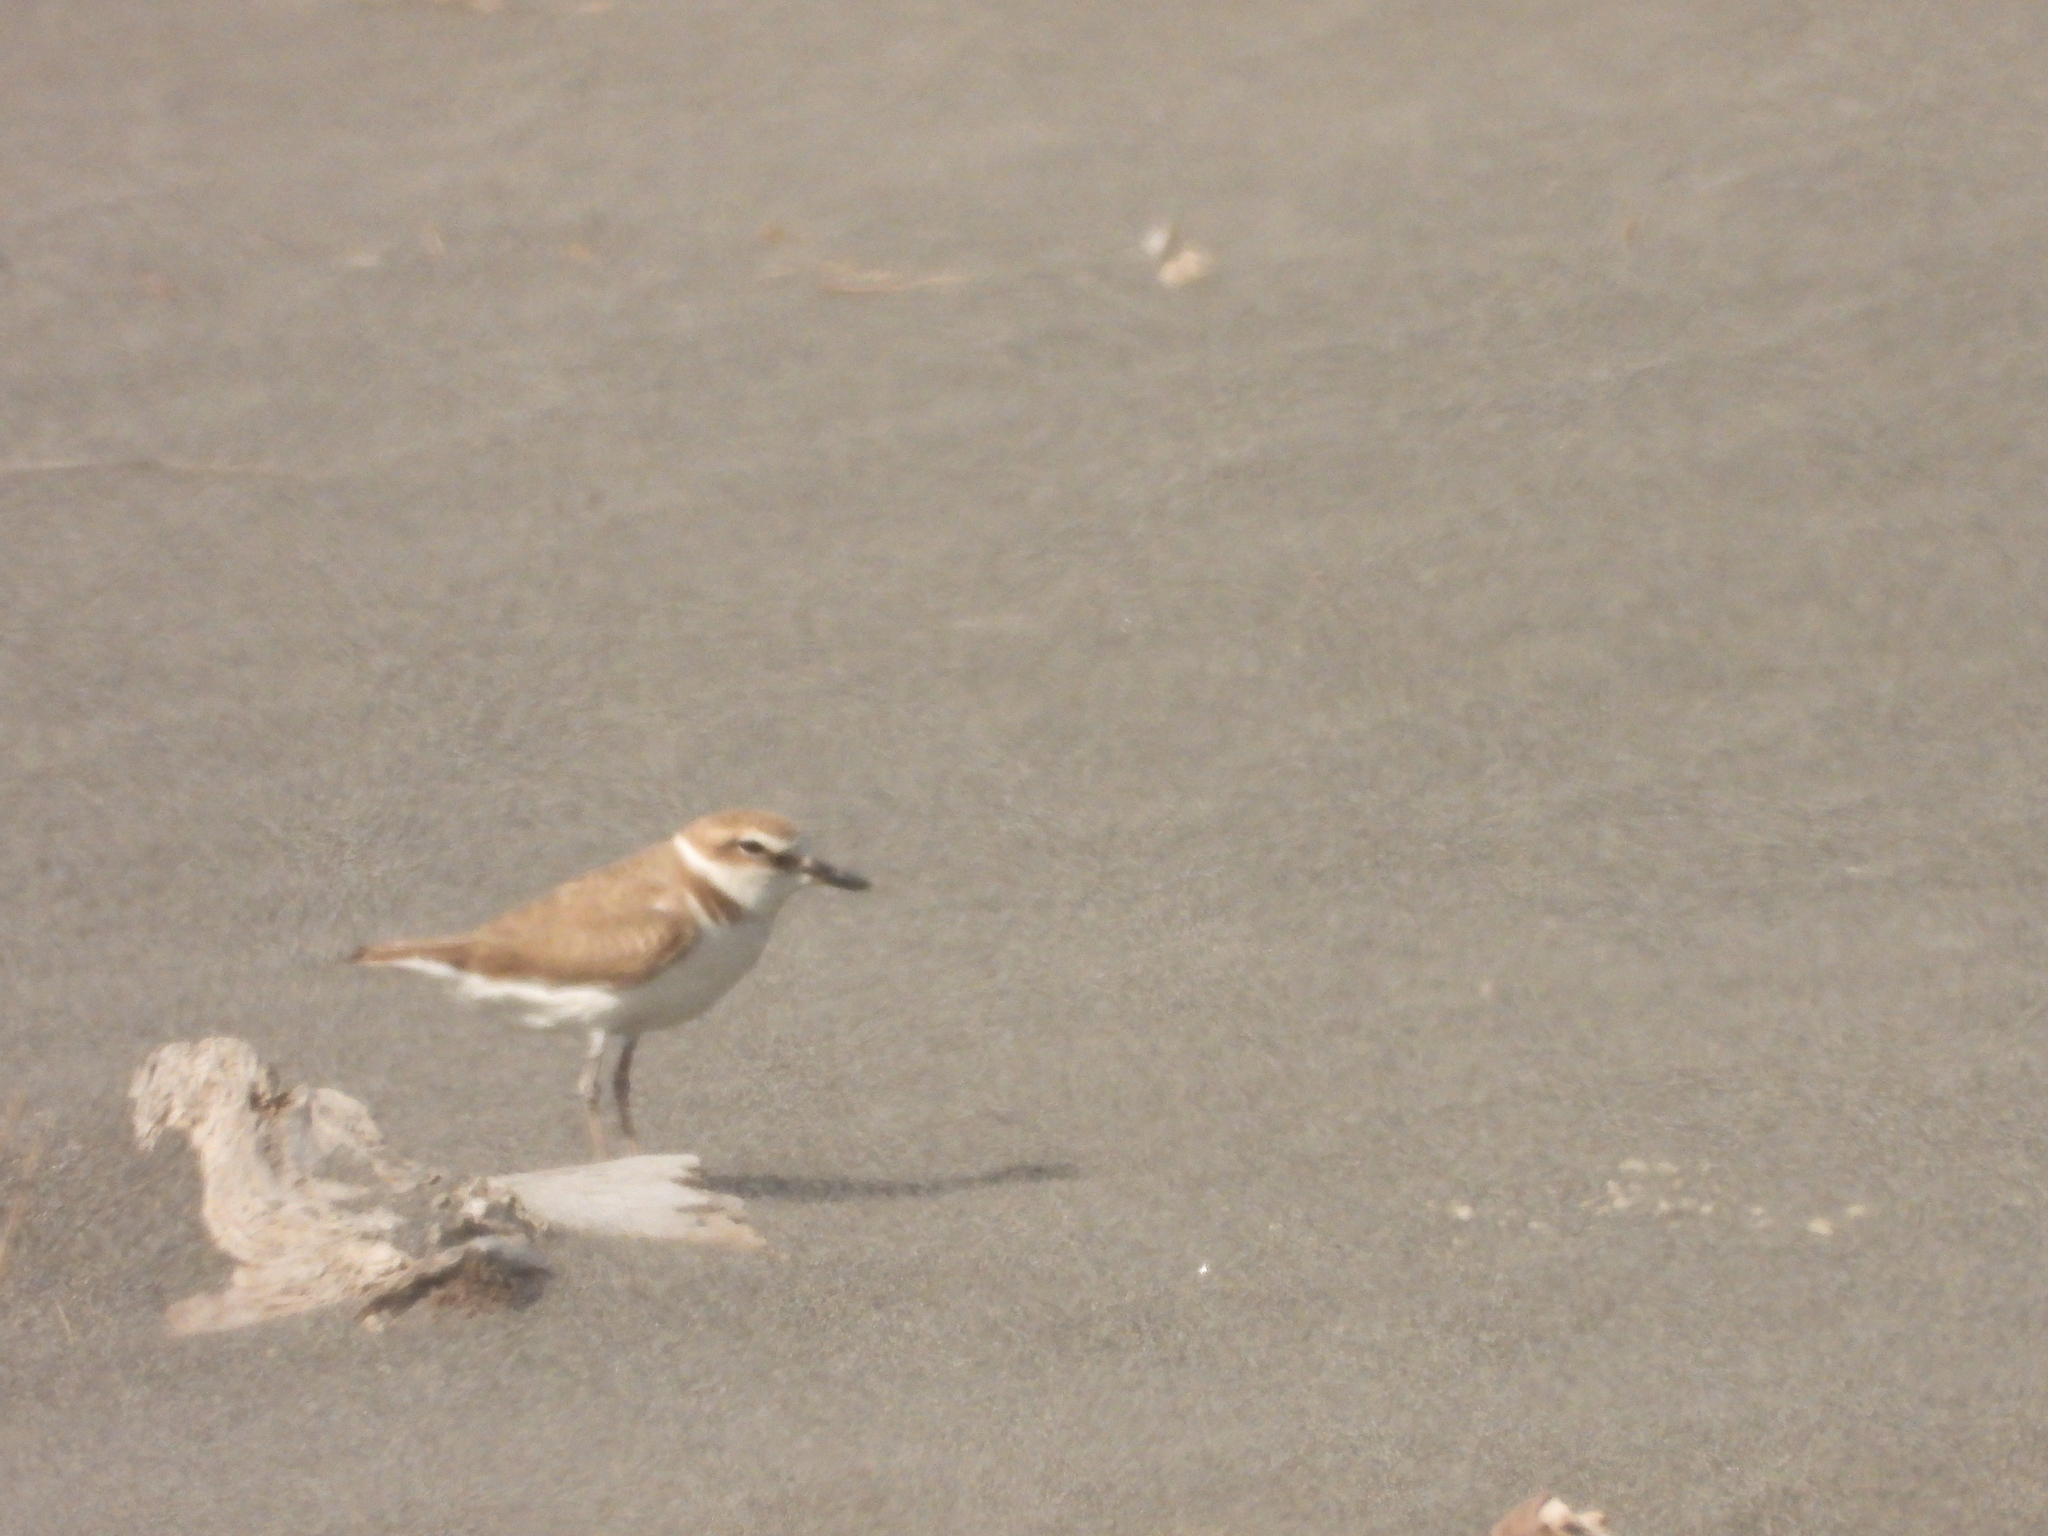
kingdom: Animalia
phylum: Chordata
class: Aves
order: Charadriiformes
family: Charadriidae
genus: Charadrius
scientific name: Charadrius alexandrinus
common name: Kentish plover
